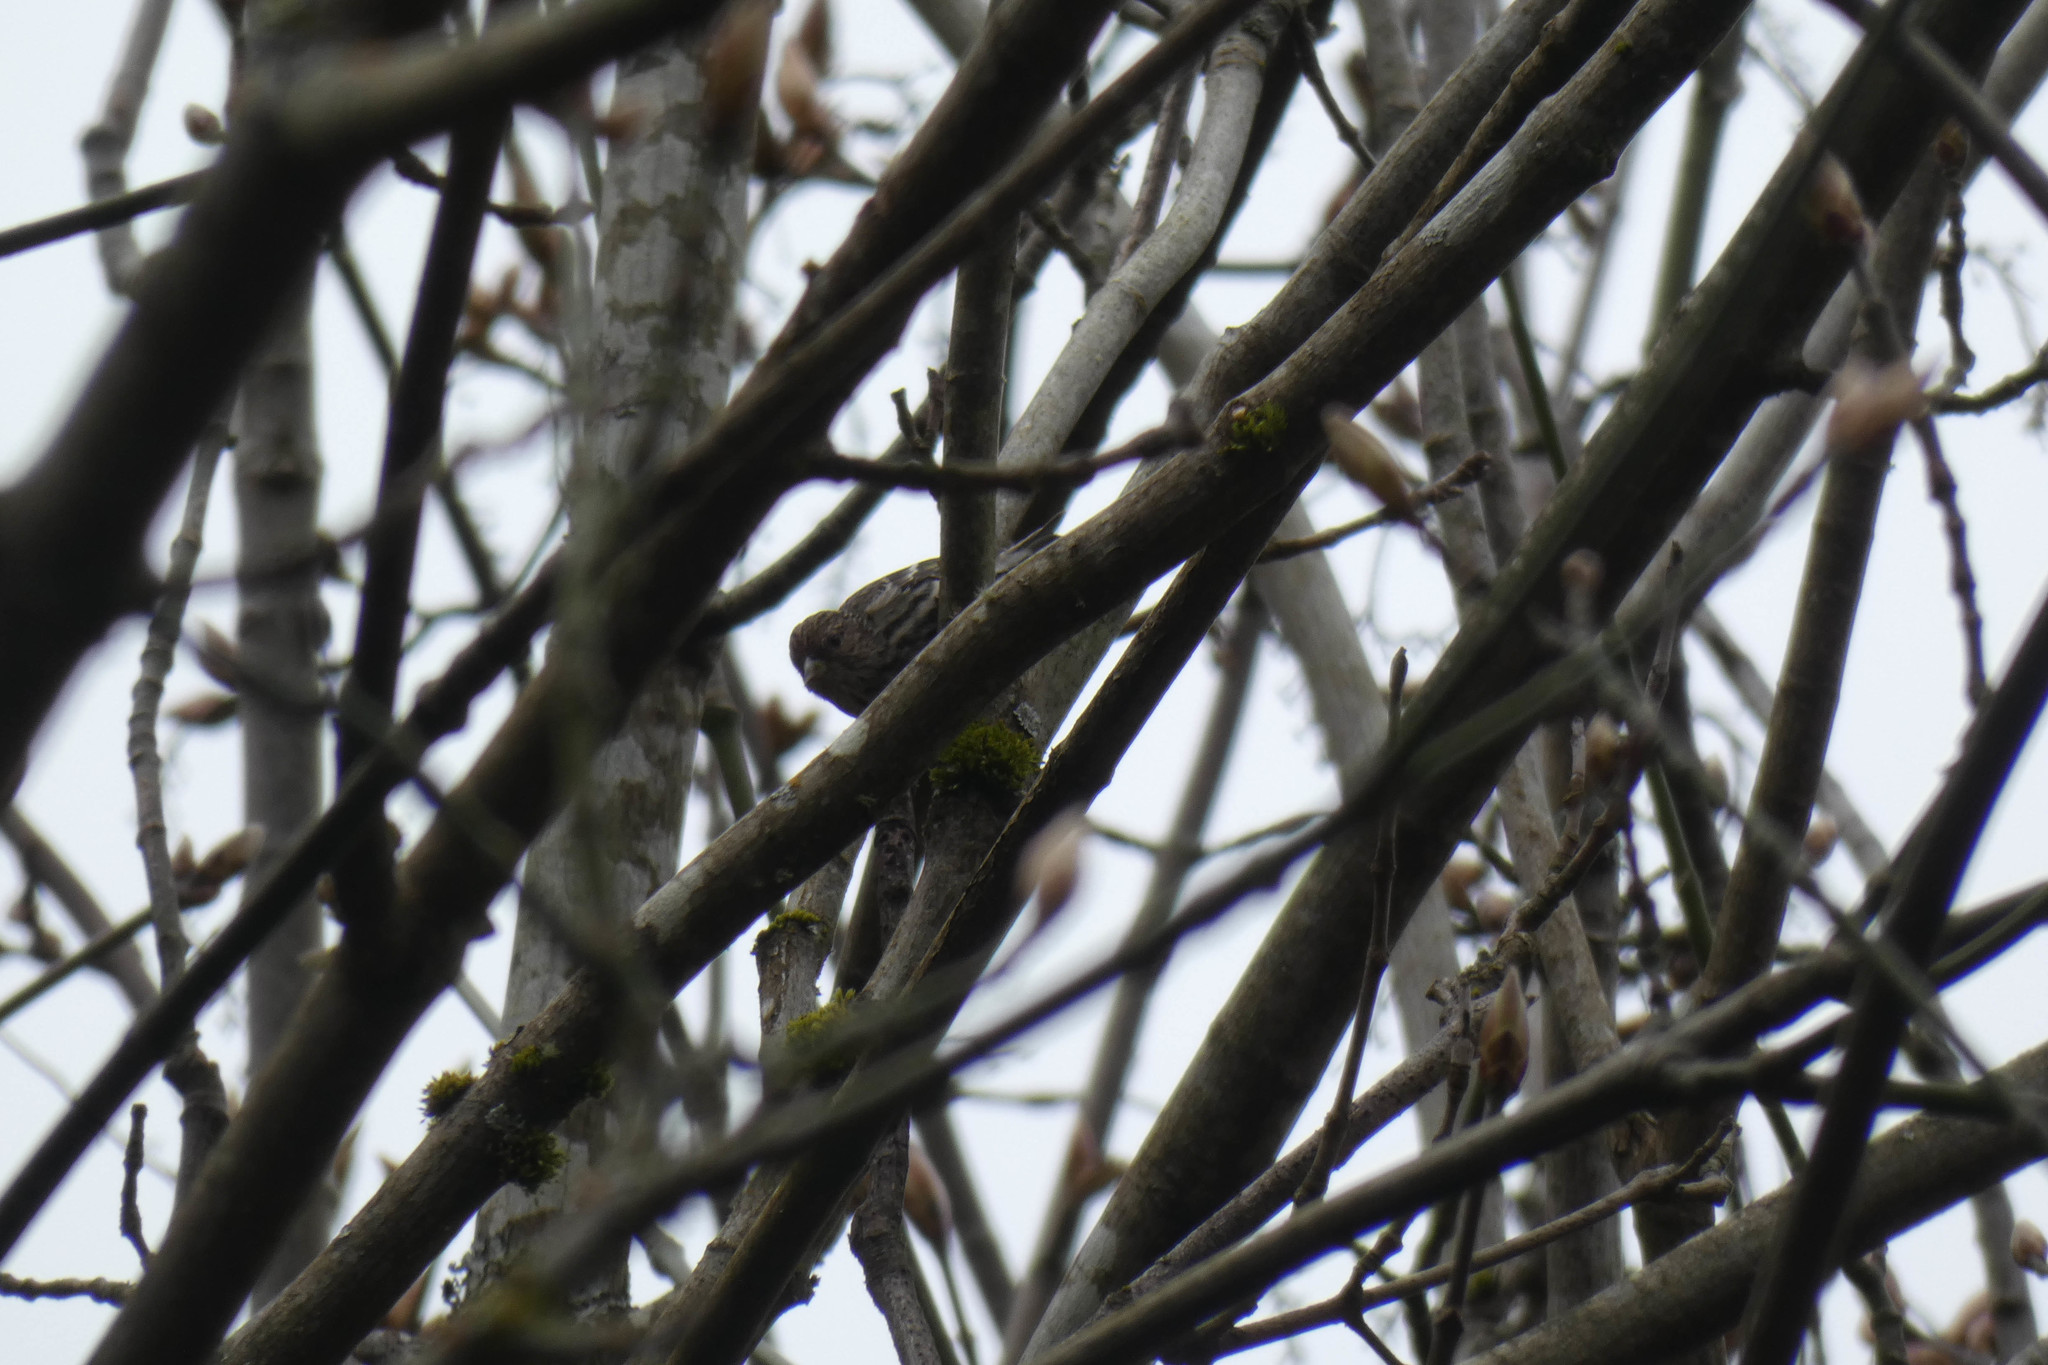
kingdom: Animalia
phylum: Chordata
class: Aves
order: Passeriformes
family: Fringillidae
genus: Spinus
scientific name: Spinus pinus
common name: Pine siskin
